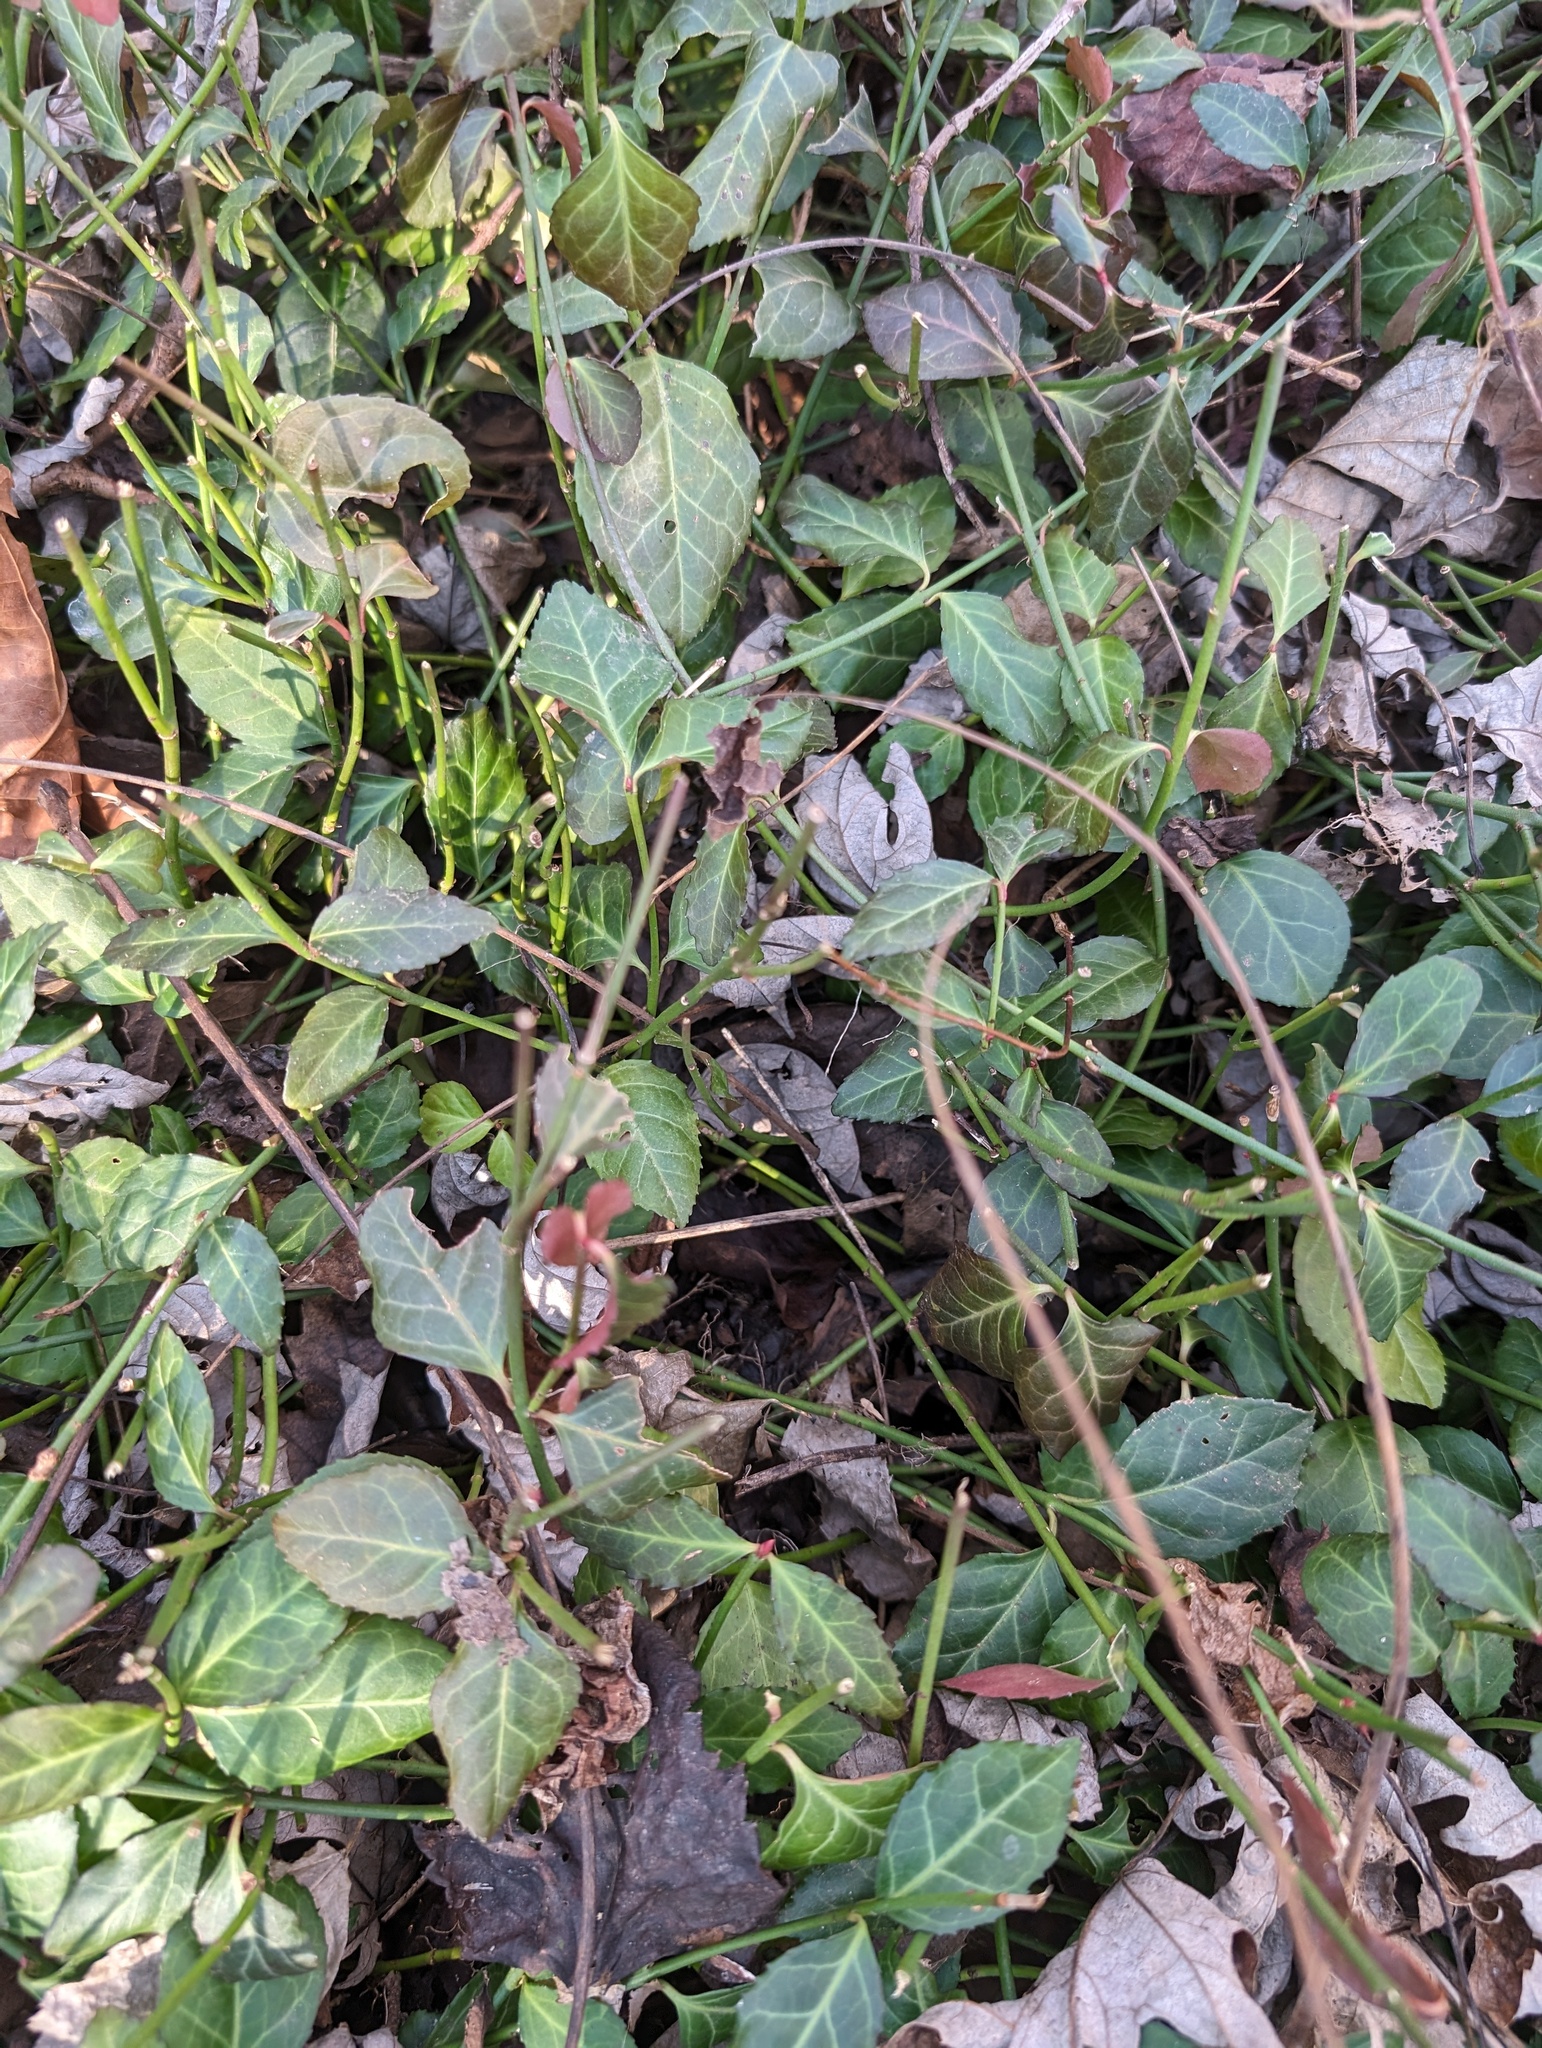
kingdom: Plantae
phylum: Tracheophyta
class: Magnoliopsida
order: Celastrales
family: Celastraceae
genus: Euonymus
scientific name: Euonymus fortunei
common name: Climbing euonymus
